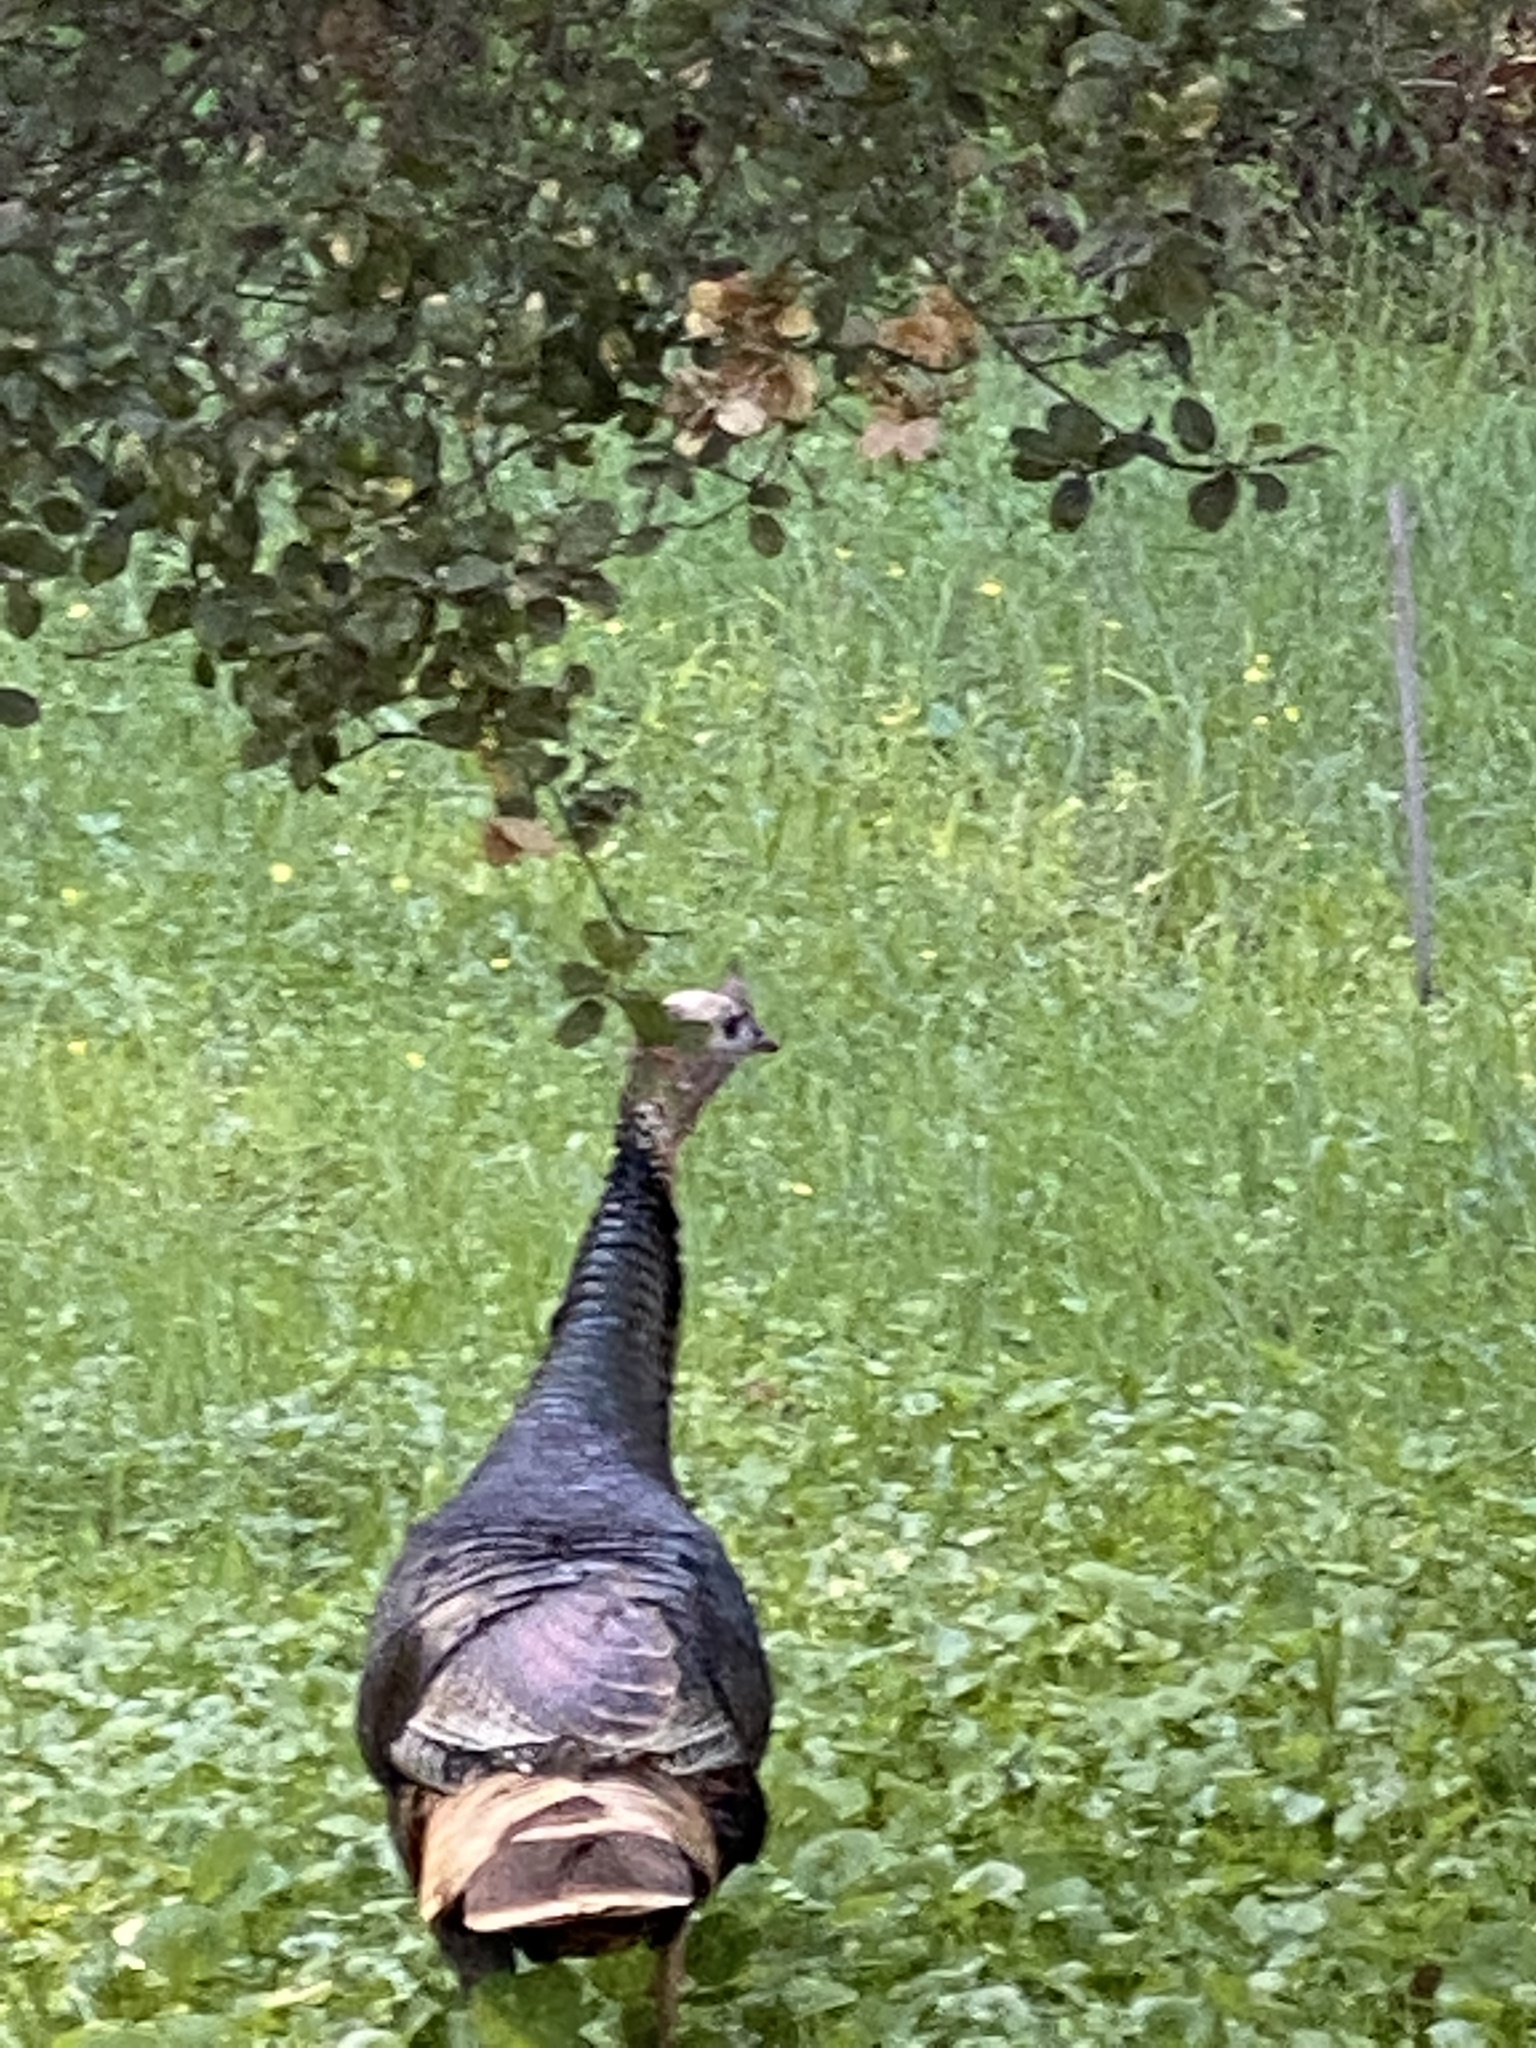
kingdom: Animalia
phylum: Chordata
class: Aves
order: Galliformes
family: Phasianidae
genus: Meleagris
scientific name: Meleagris gallopavo
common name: Wild turkey
